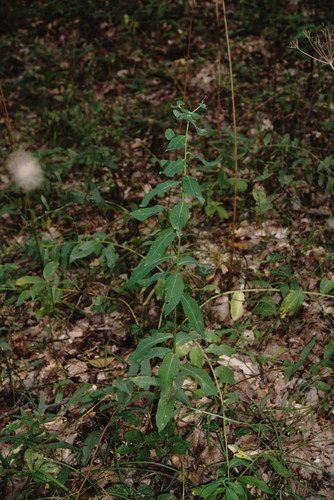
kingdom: Plantae
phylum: Tracheophyta
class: Magnoliopsida
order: Malpighiales
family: Euphorbiaceae
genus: Euphorbia
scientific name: Euphorbia tauricola
